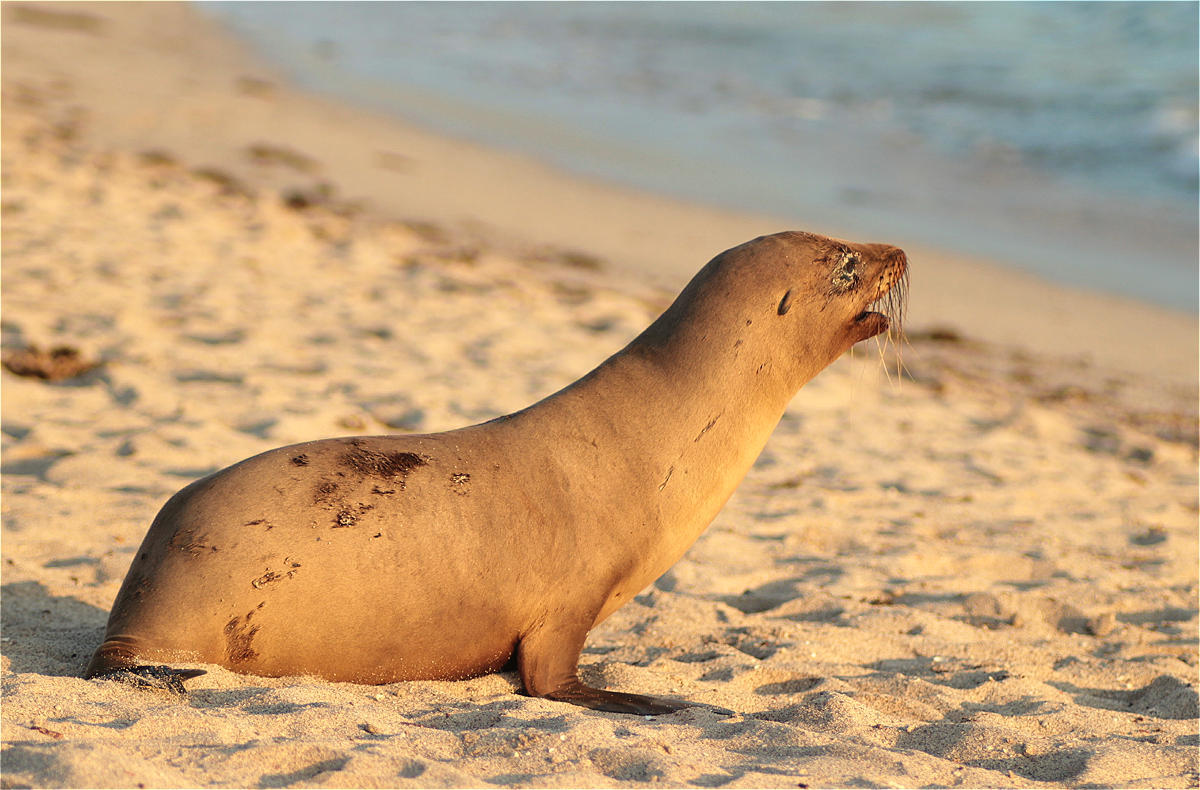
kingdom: Animalia
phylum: Chordata
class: Mammalia
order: Carnivora
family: Otariidae
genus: Zalophus
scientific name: Zalophus wollebaeki
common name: Galapagos sea lion
